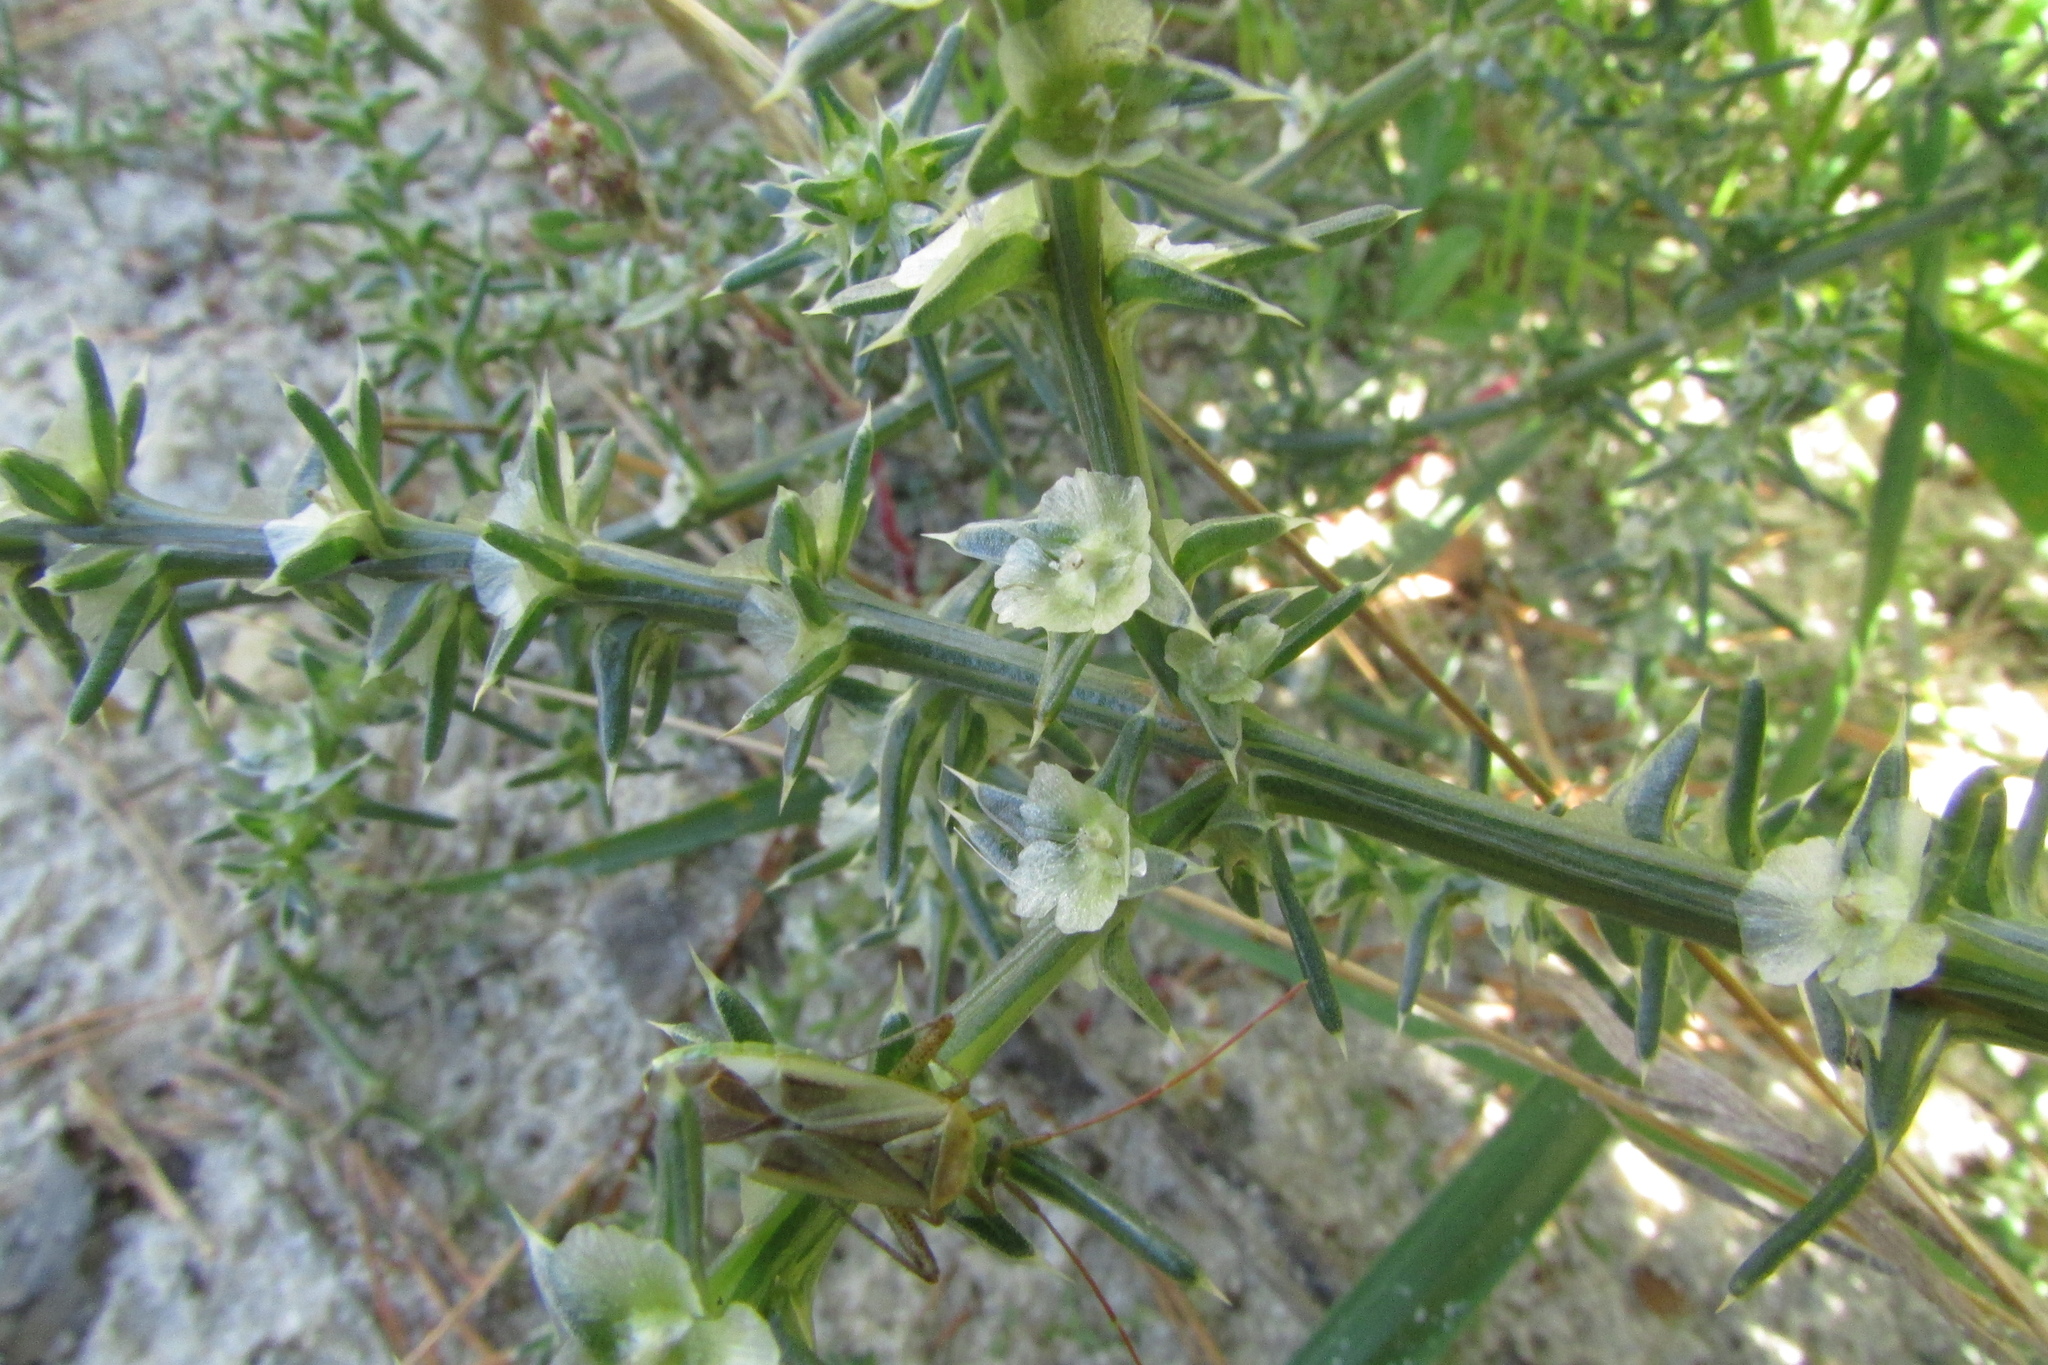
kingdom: Plantae
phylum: Tracheophyta
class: Magnoliopsida
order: Caryophyllales
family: Amaranthaceae
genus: Salsola
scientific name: Salsola tragus
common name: Prickly russian thistle
